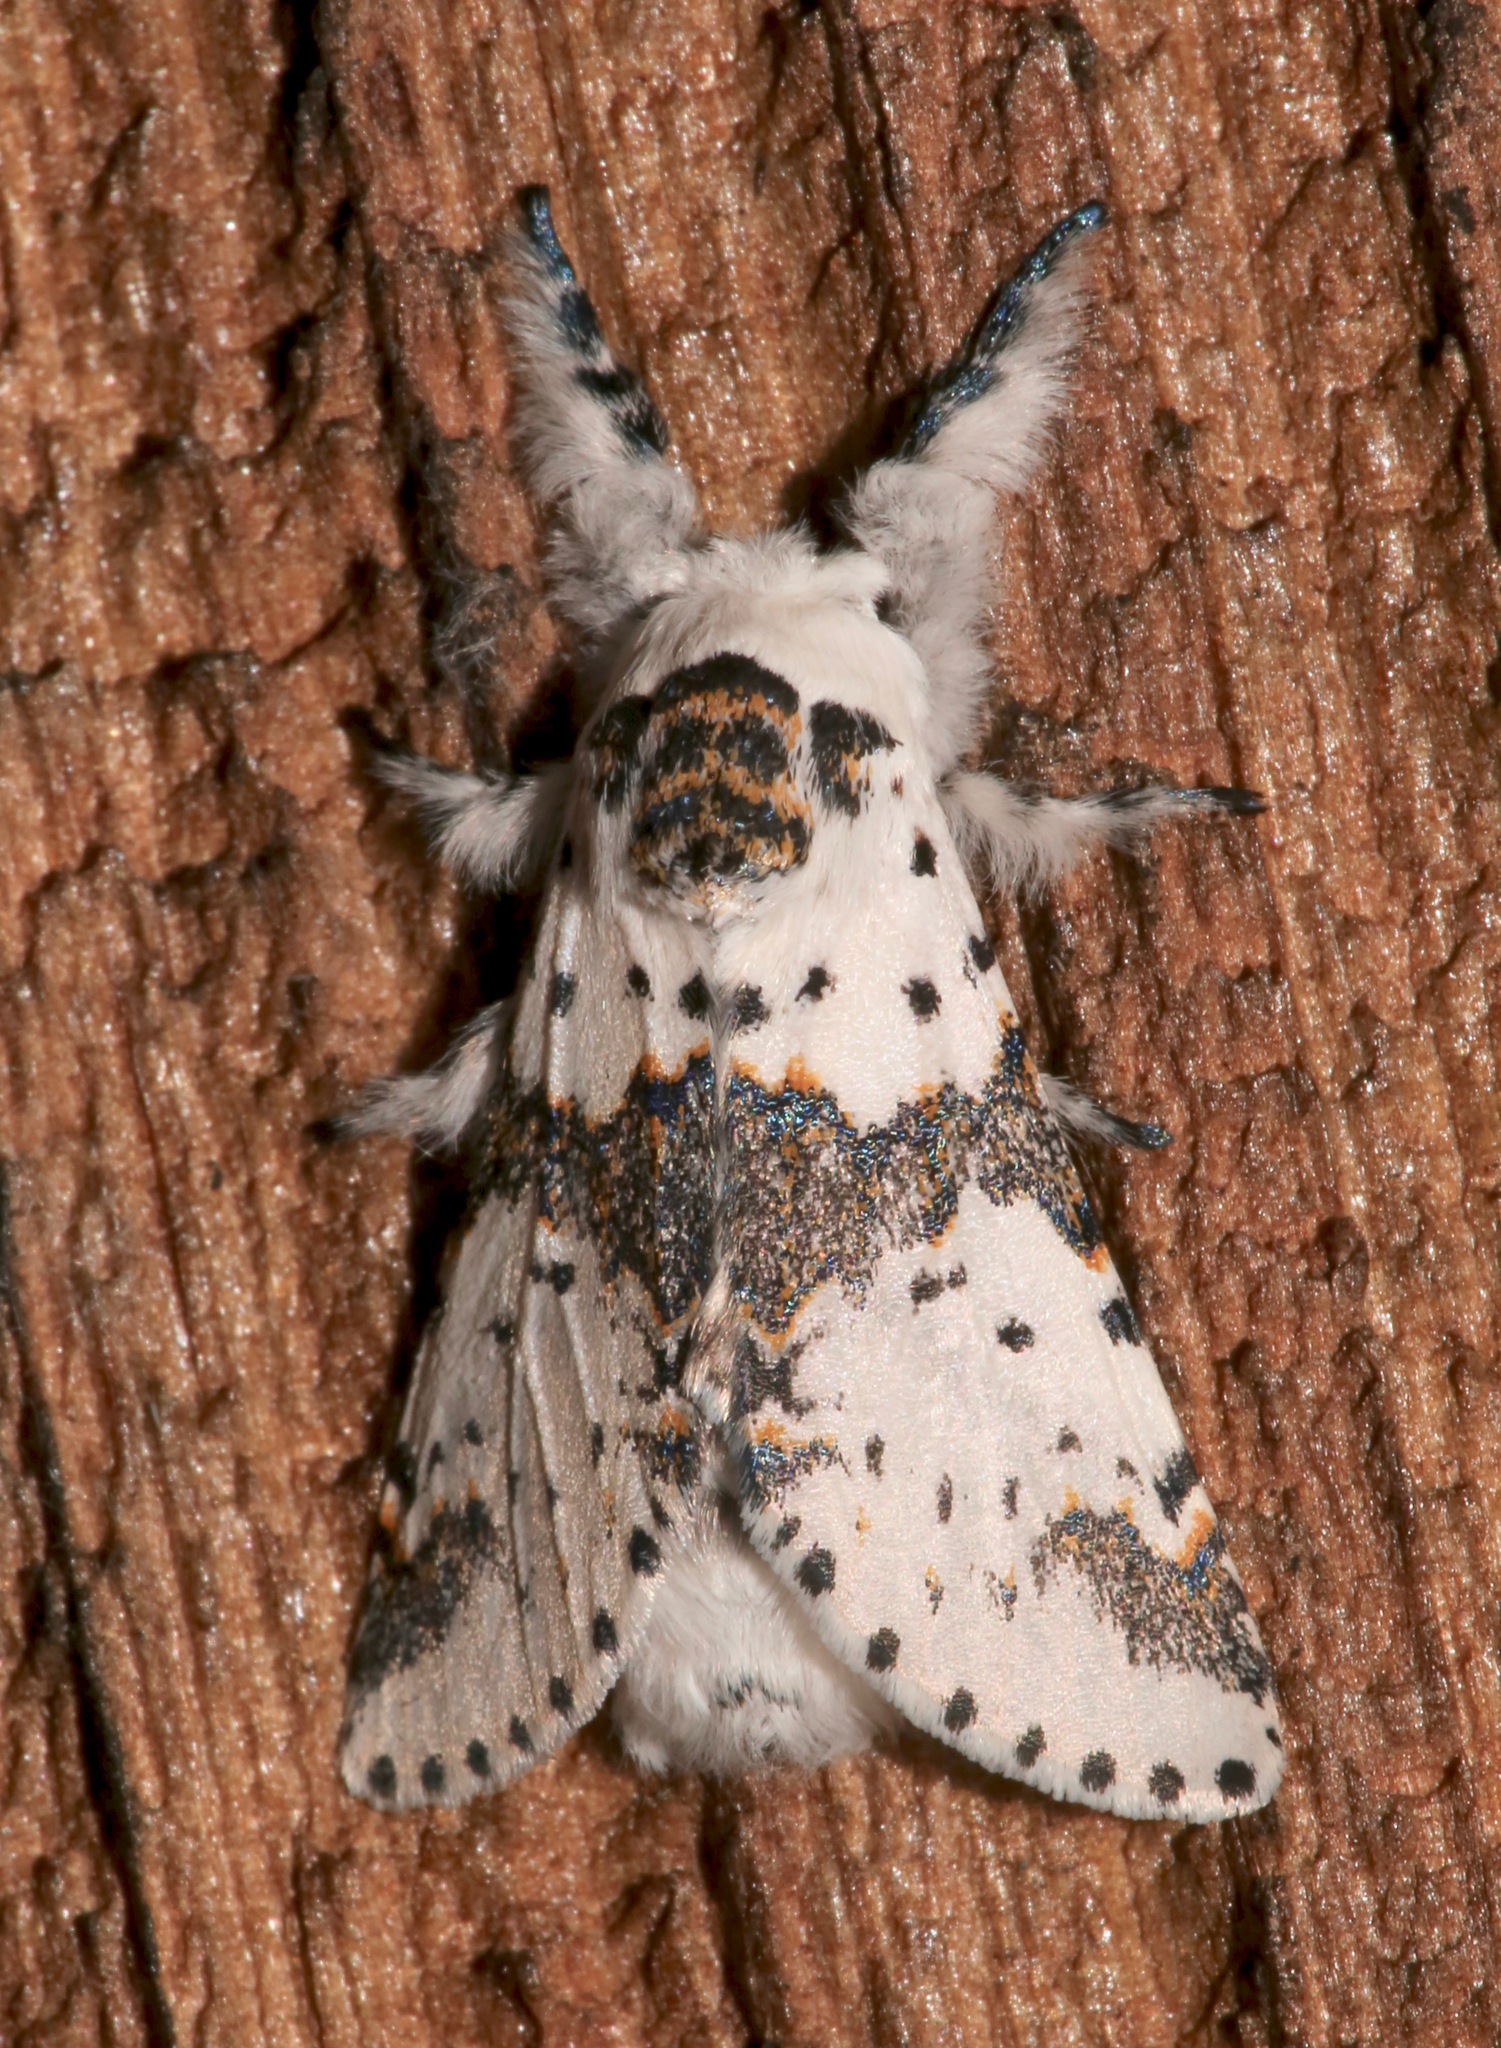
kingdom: Animalia
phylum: Arthropoda
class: Insecta
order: Lepidoptera
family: Notodontidae
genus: Furcula
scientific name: Furcula borealis
